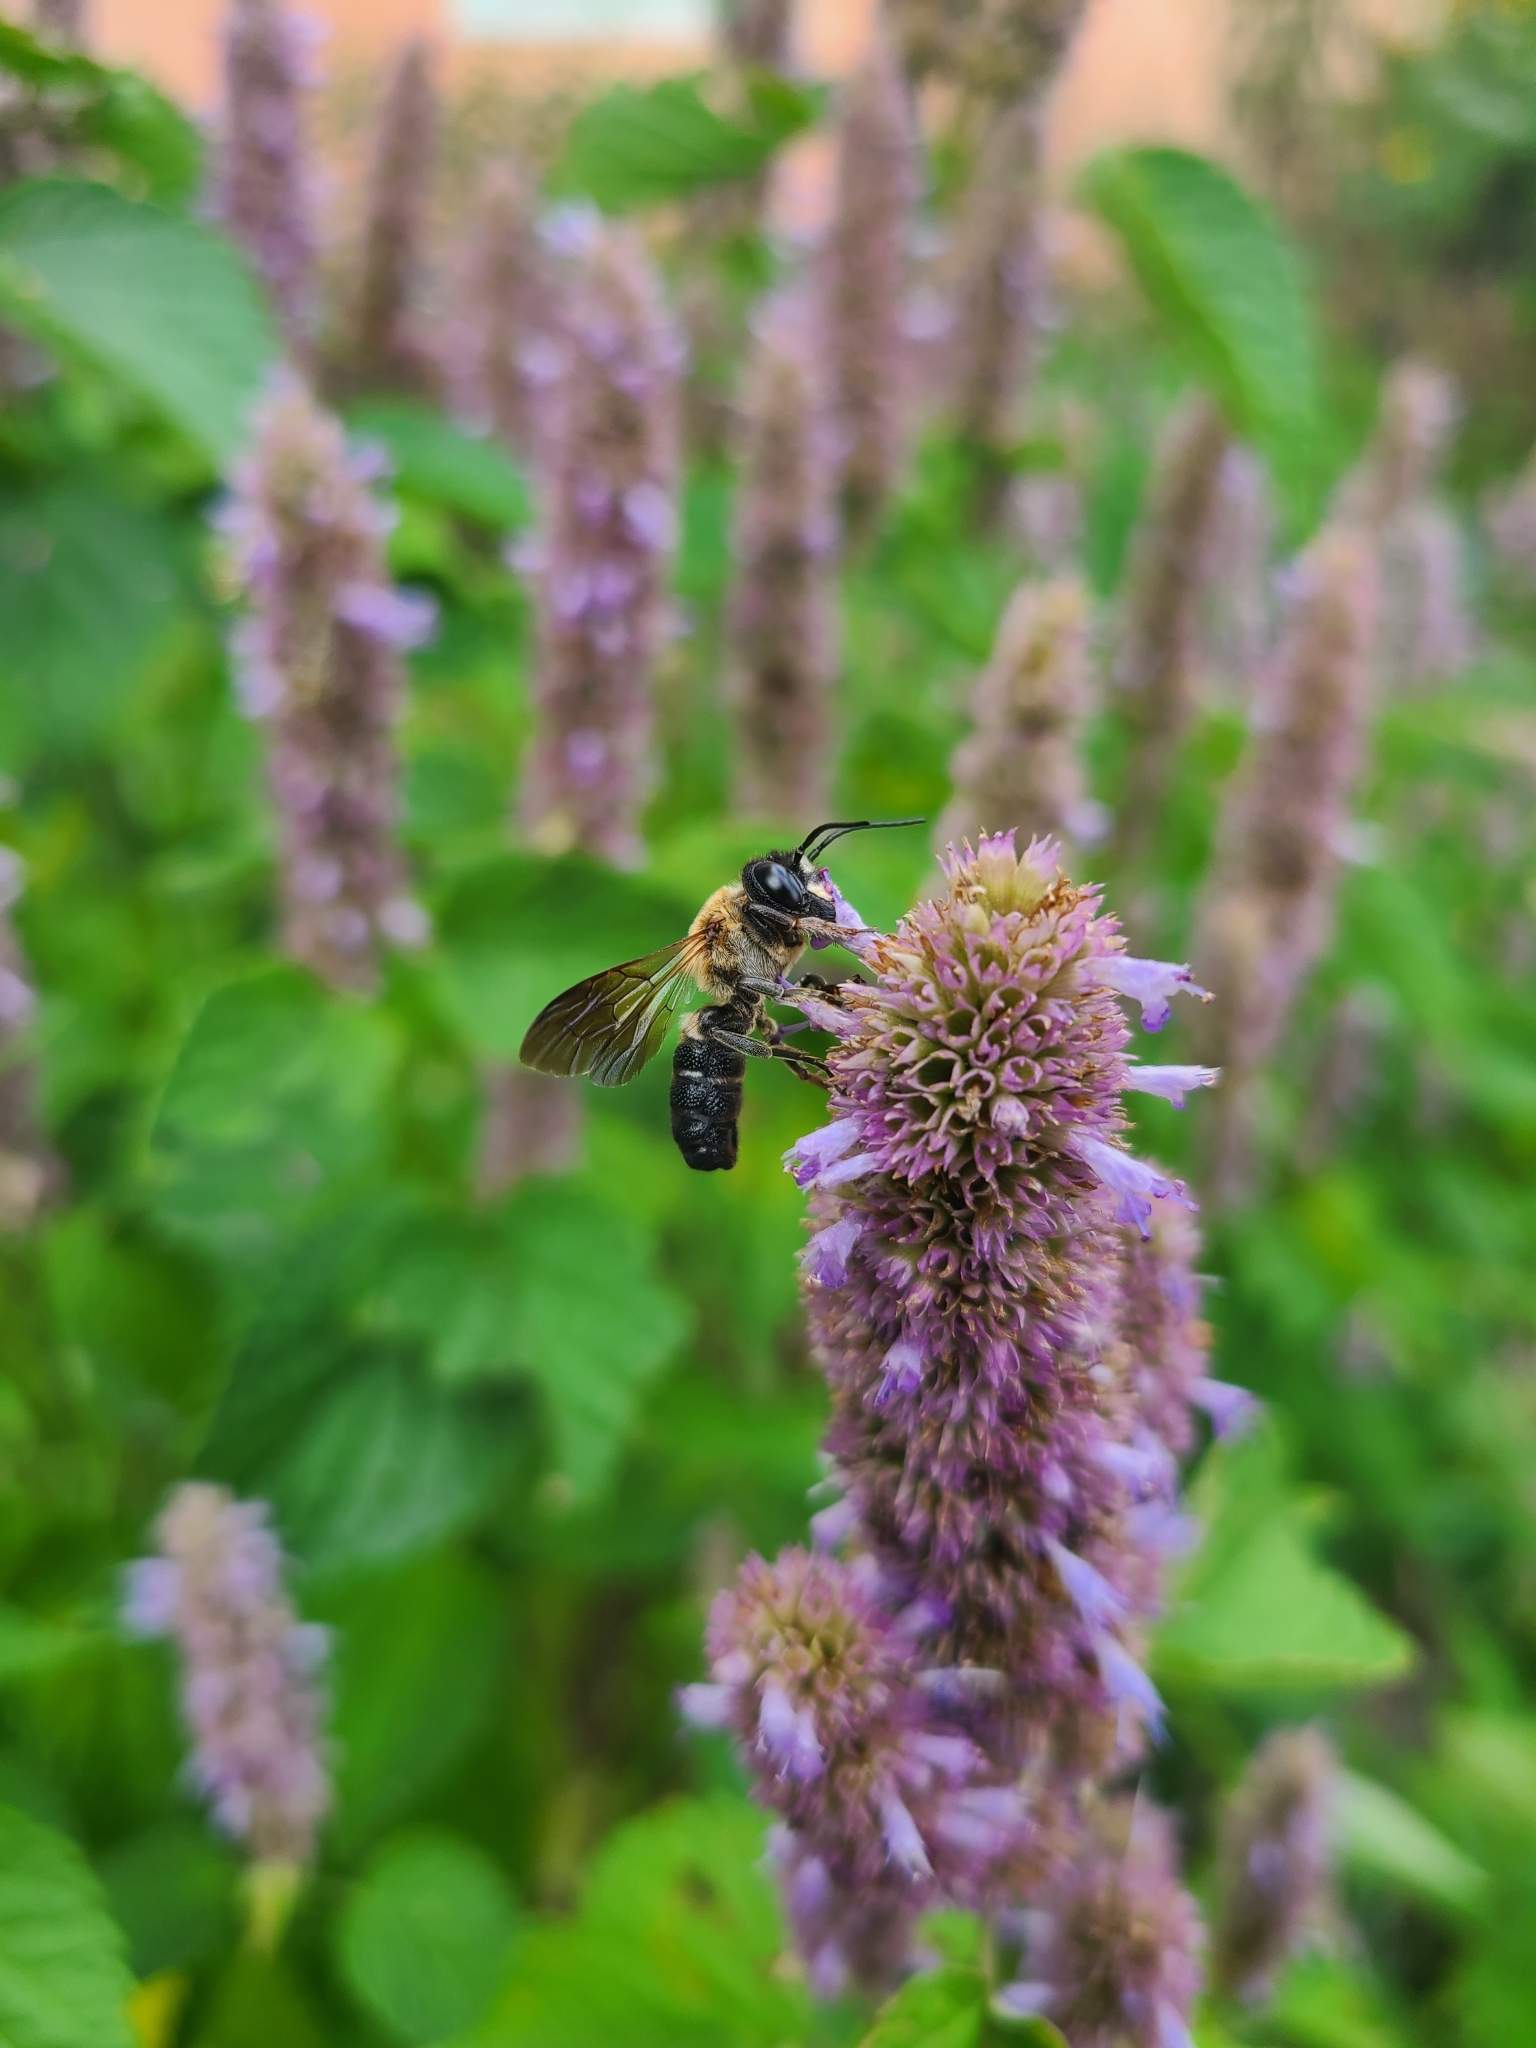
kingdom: Animalia
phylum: Arthropoda
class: Insecta
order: Hymenoptera
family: Megachilidae
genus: Megachile
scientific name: Megachile sculpturalis
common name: Sculptured resin bee
